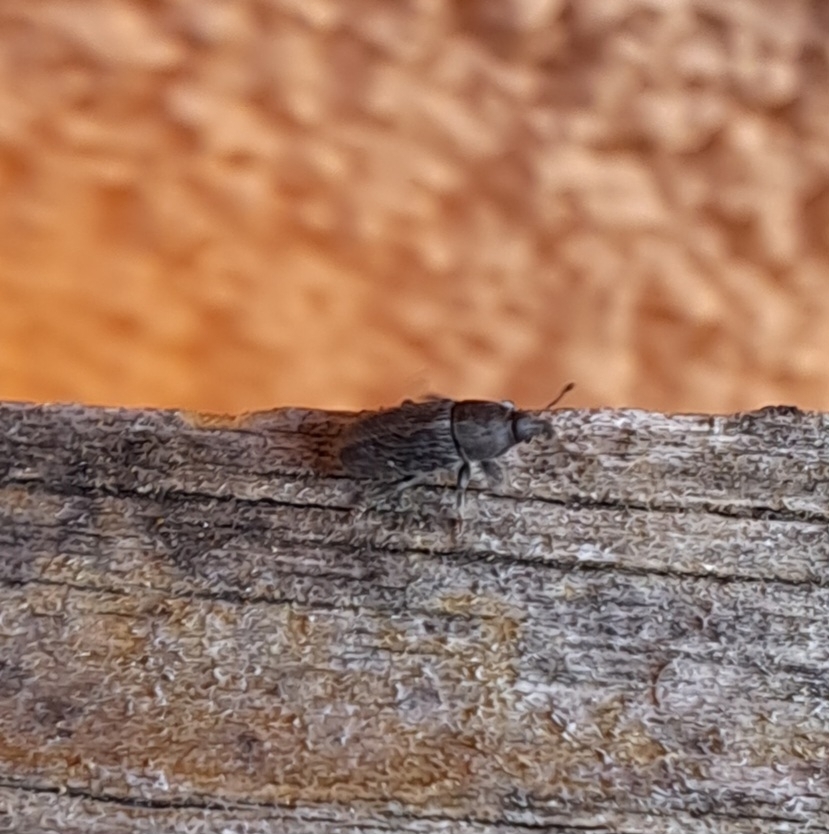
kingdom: Animalia
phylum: Arthropoda
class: Insecta
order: Coleoptera
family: Curculionidae
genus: Mecinus
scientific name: Mecinus pyraster
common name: Weevil
